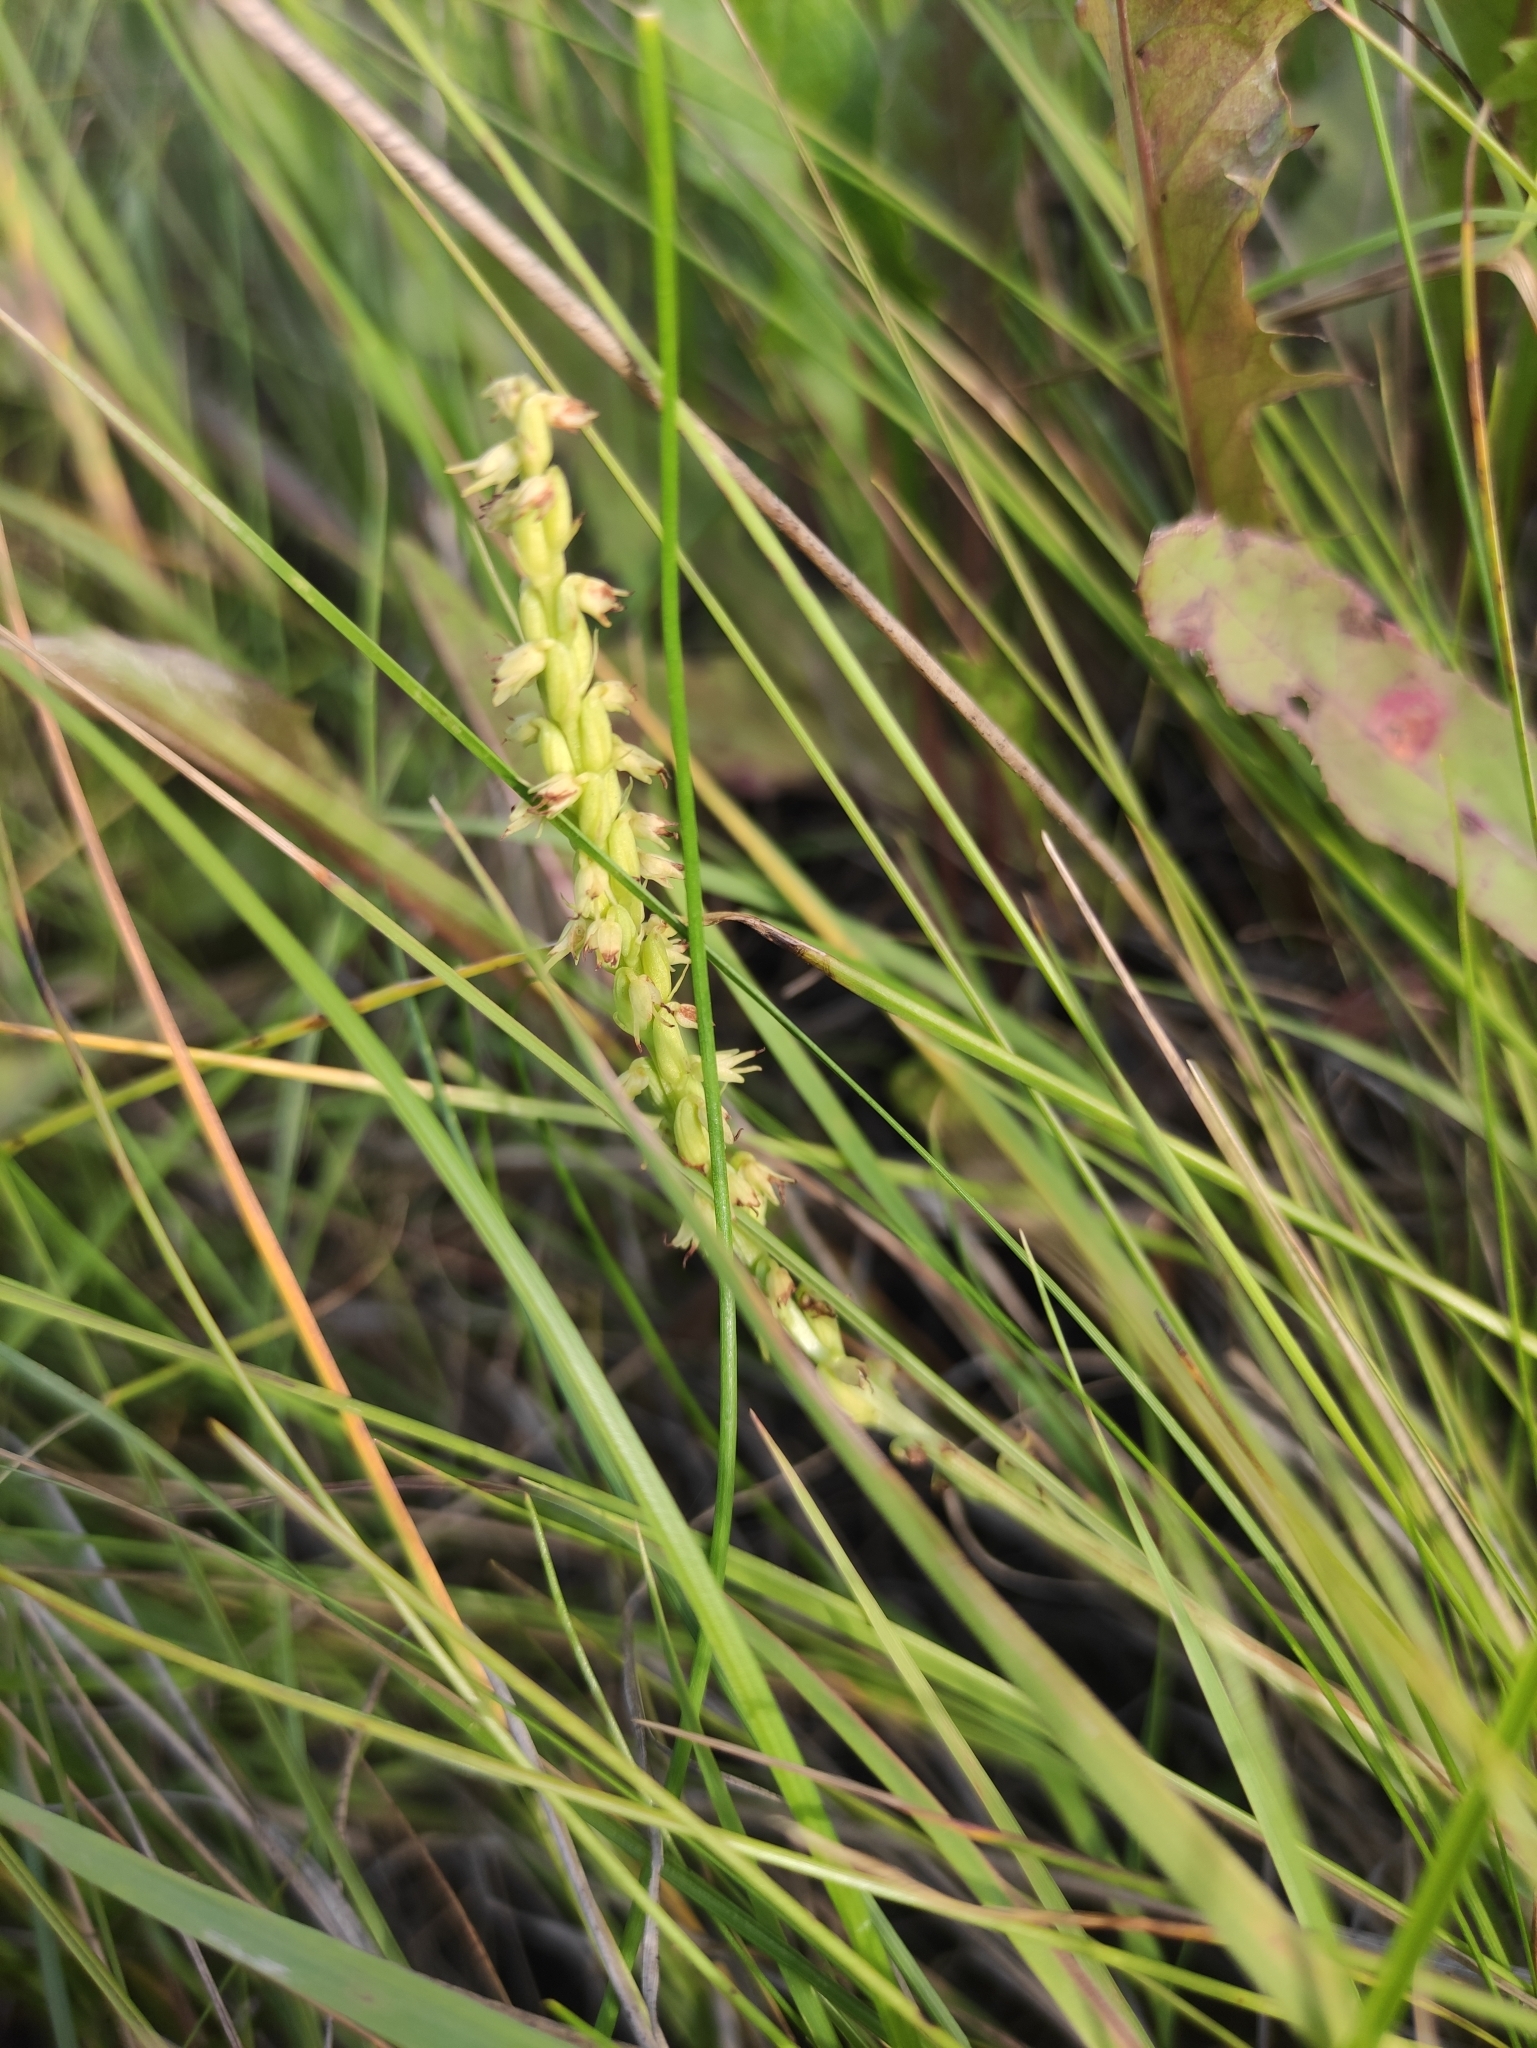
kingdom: Plantae
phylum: Tracheophyta
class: Liliopsida
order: Asparagales
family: Orchidaceae
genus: Herminium
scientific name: Herminium monorchis
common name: Musk orchid
